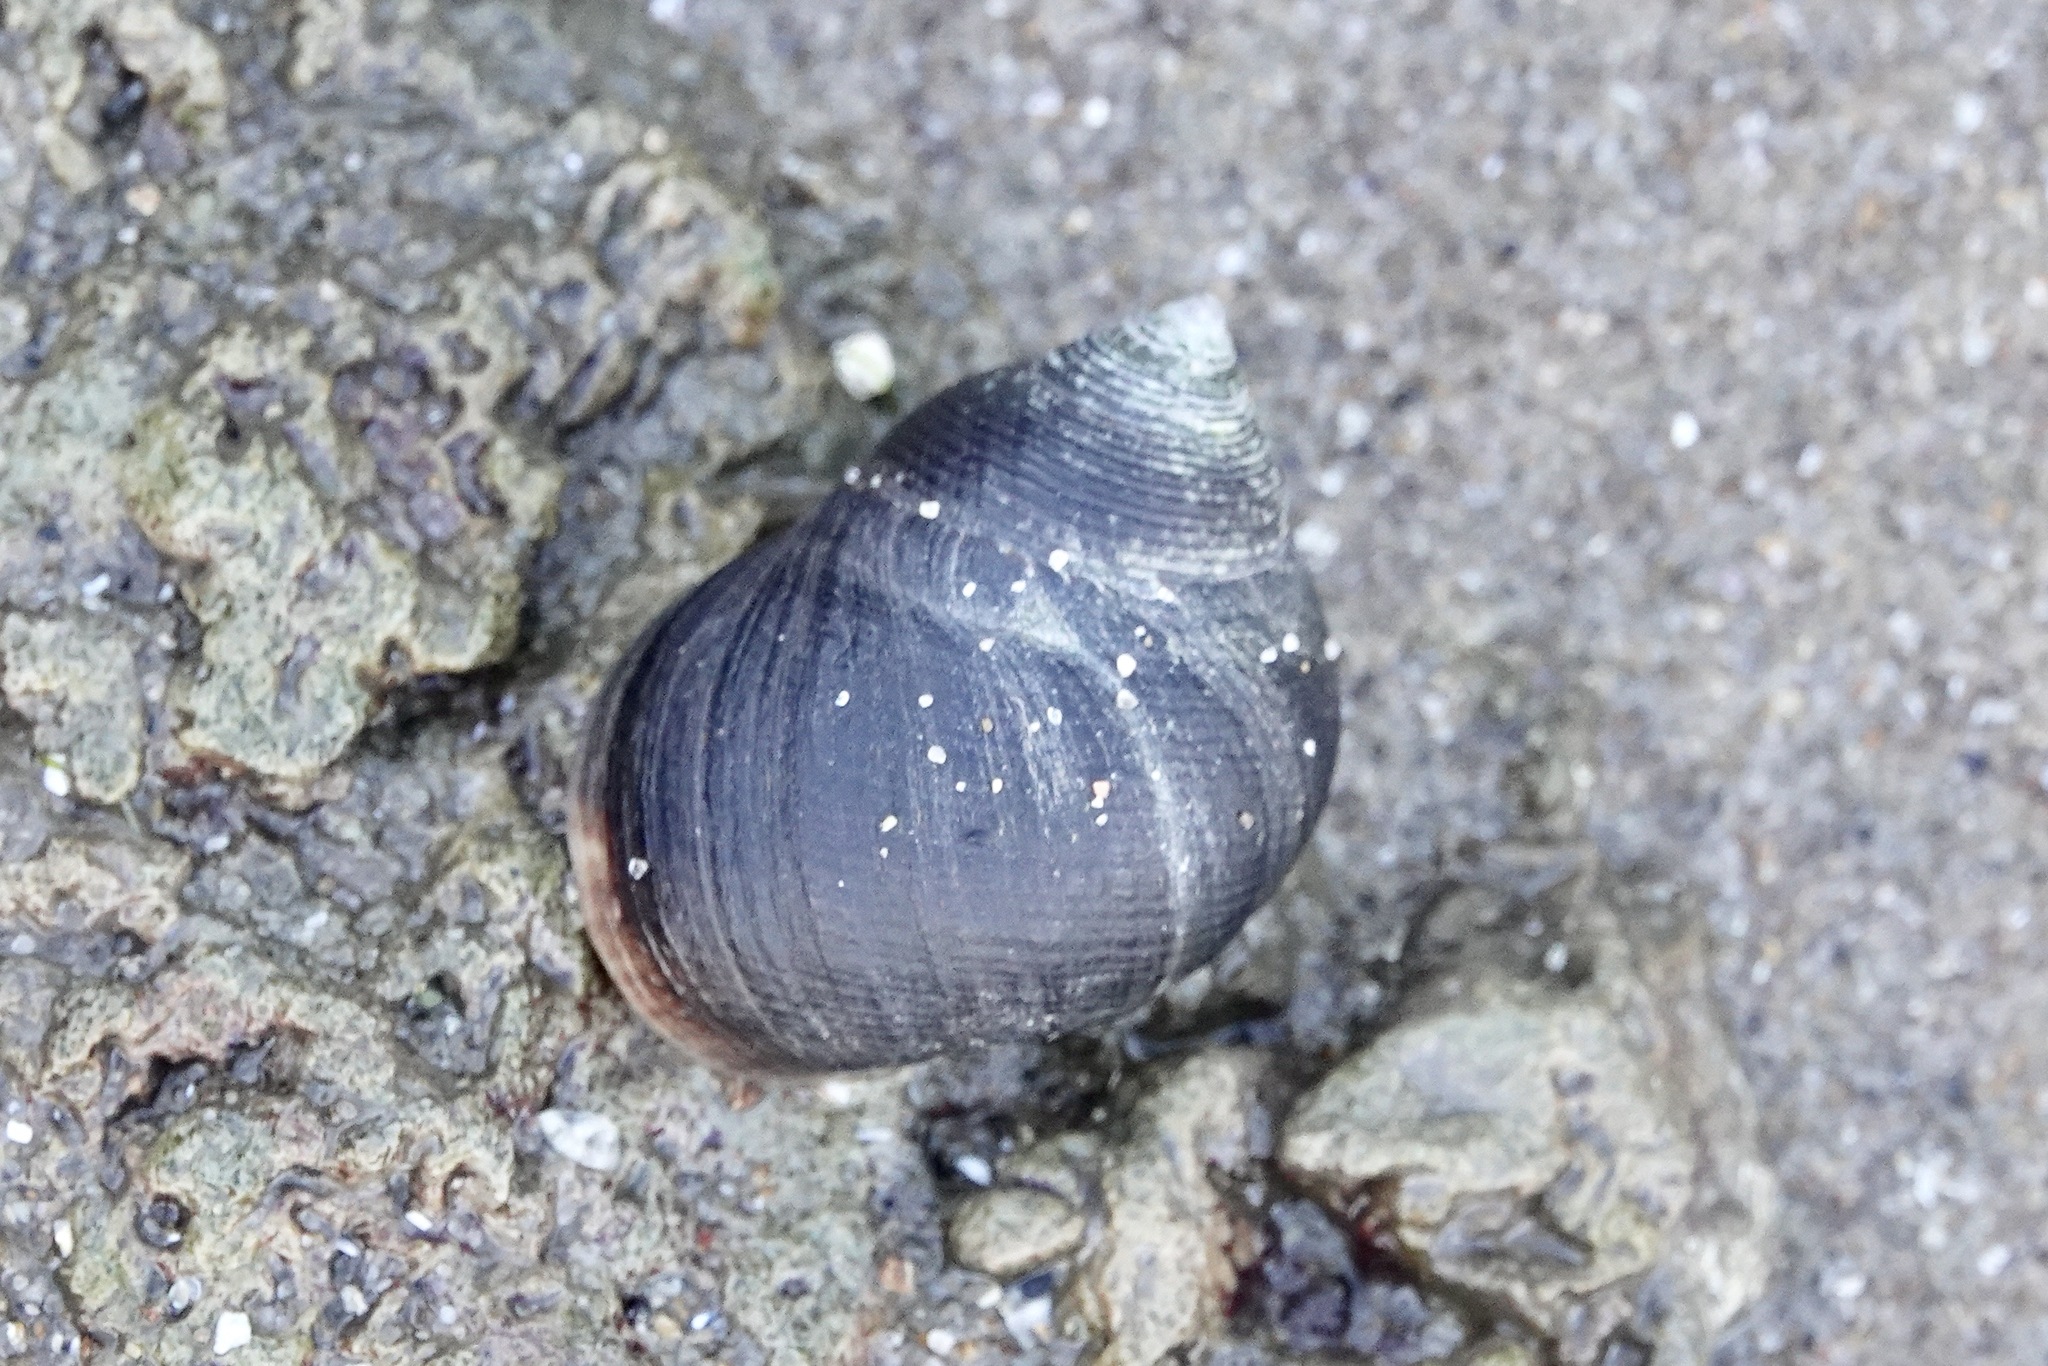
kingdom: Animalia
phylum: Mollusca
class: Gastropoda
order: Littorinimorpha
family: Littorinidae
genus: Littorina
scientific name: Littorina littorea
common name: Common periwinkle
